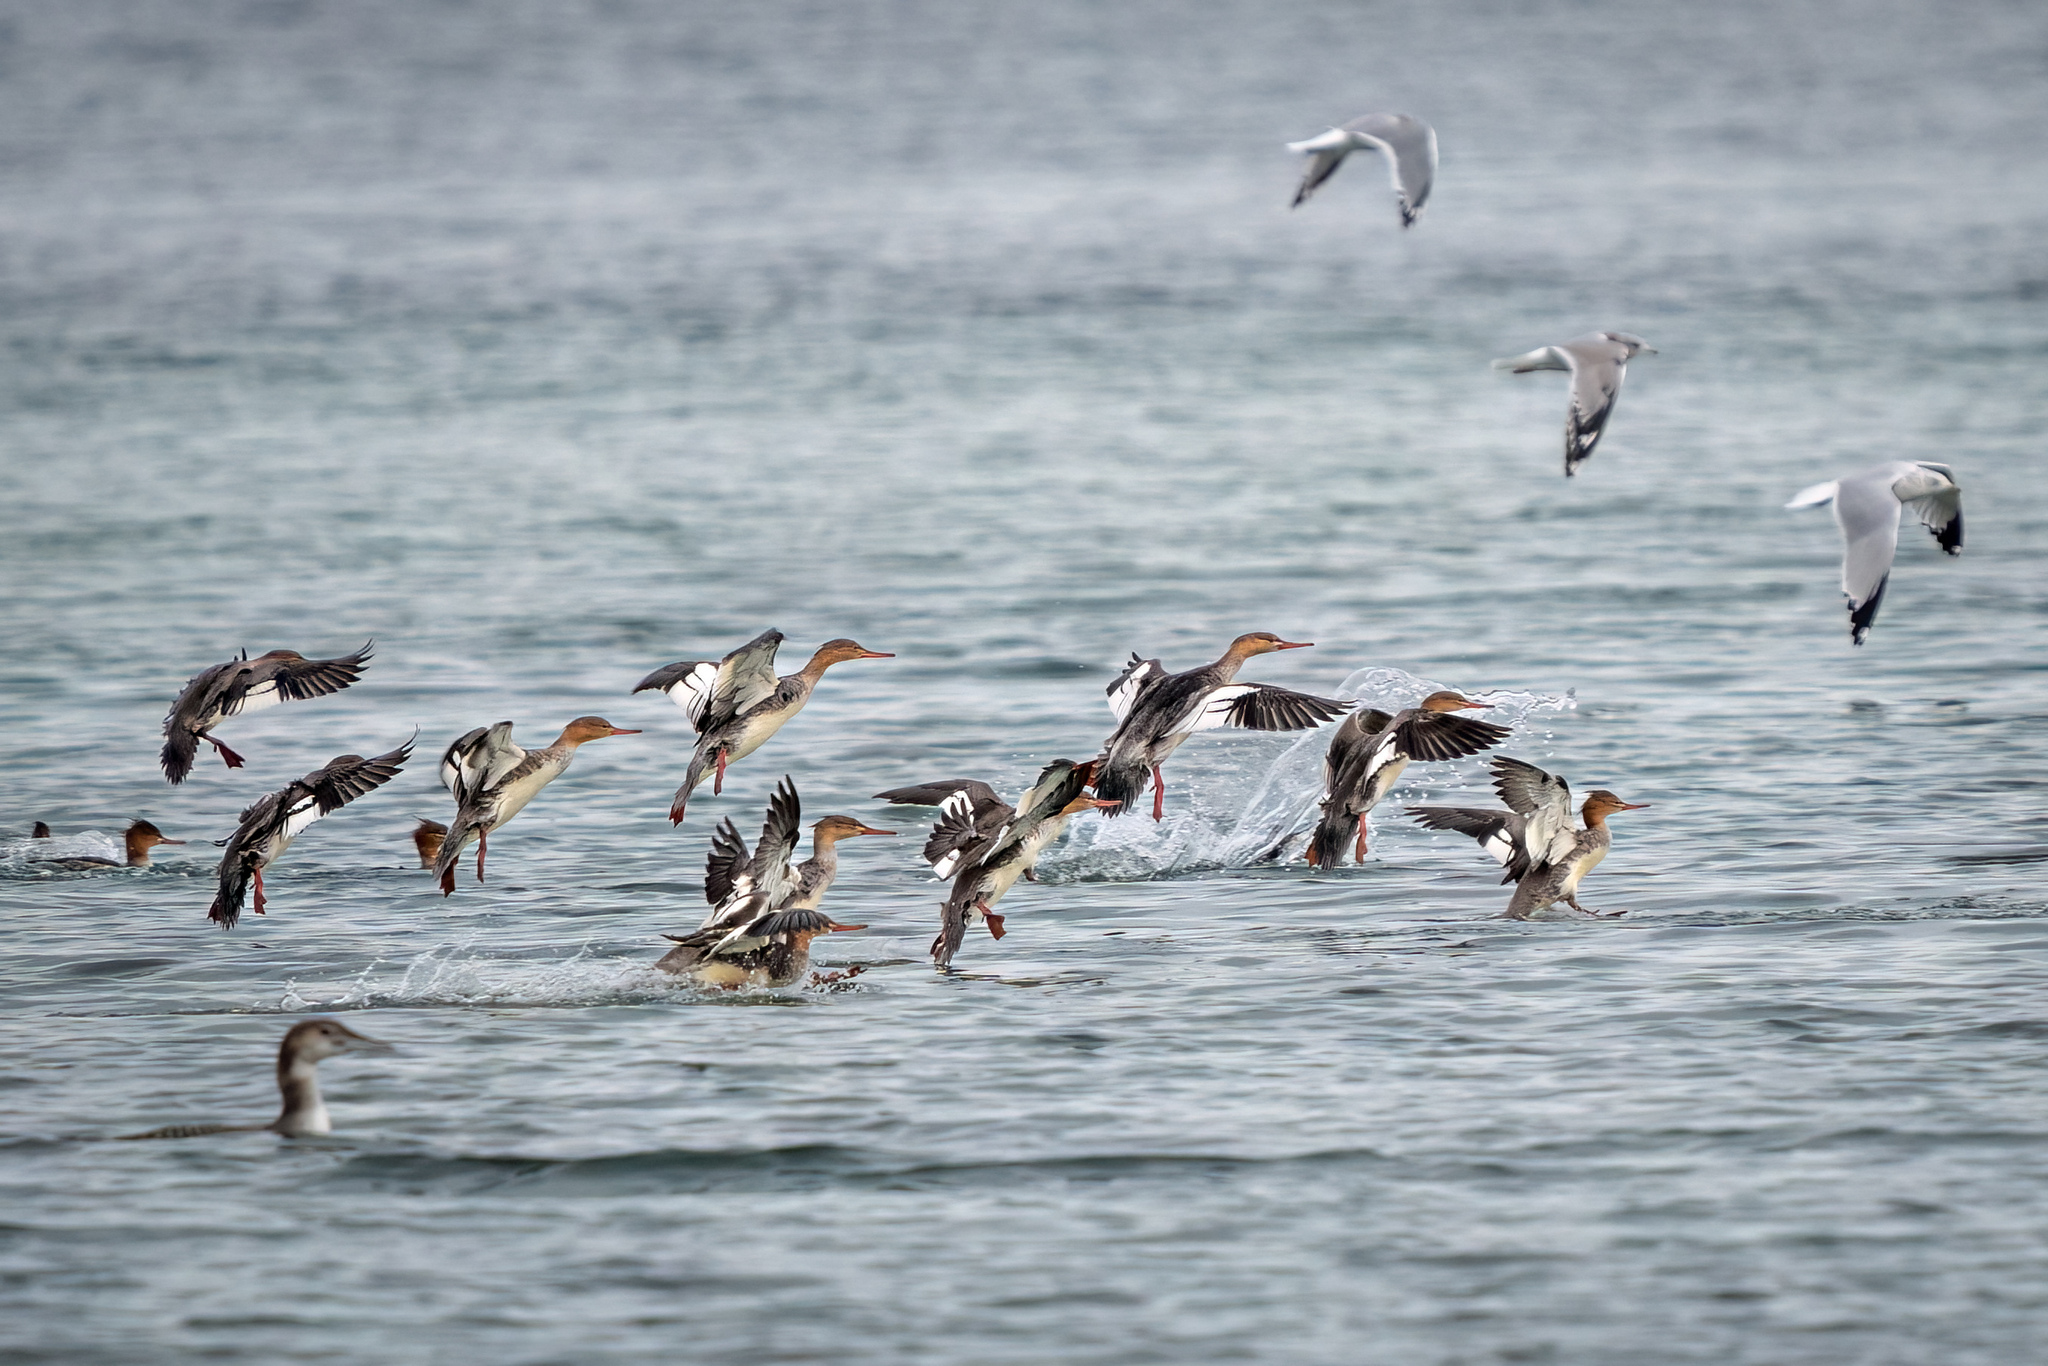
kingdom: Animalia
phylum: Chordata
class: Aves
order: Anseriformes
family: Anatidae
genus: Mergus
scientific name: Mergus serrator
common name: Red-breasted merganser
